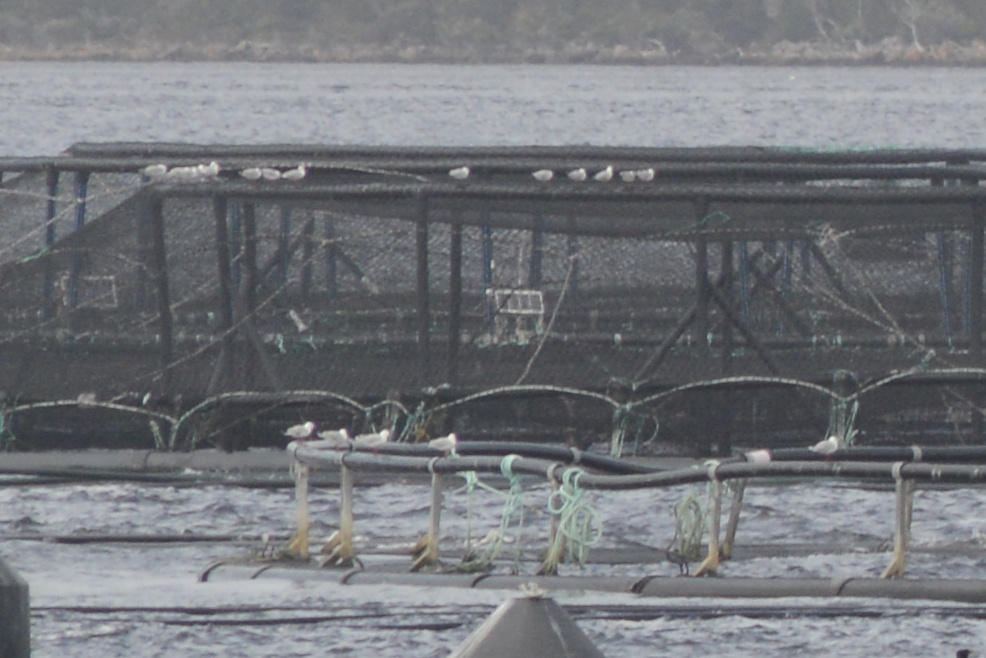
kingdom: Animalia
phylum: Chordata
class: Aves
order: Charadriiformes
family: Laridae
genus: Chroicocephalus
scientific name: Chroicocephalus novaehollandiae
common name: Silver gull
